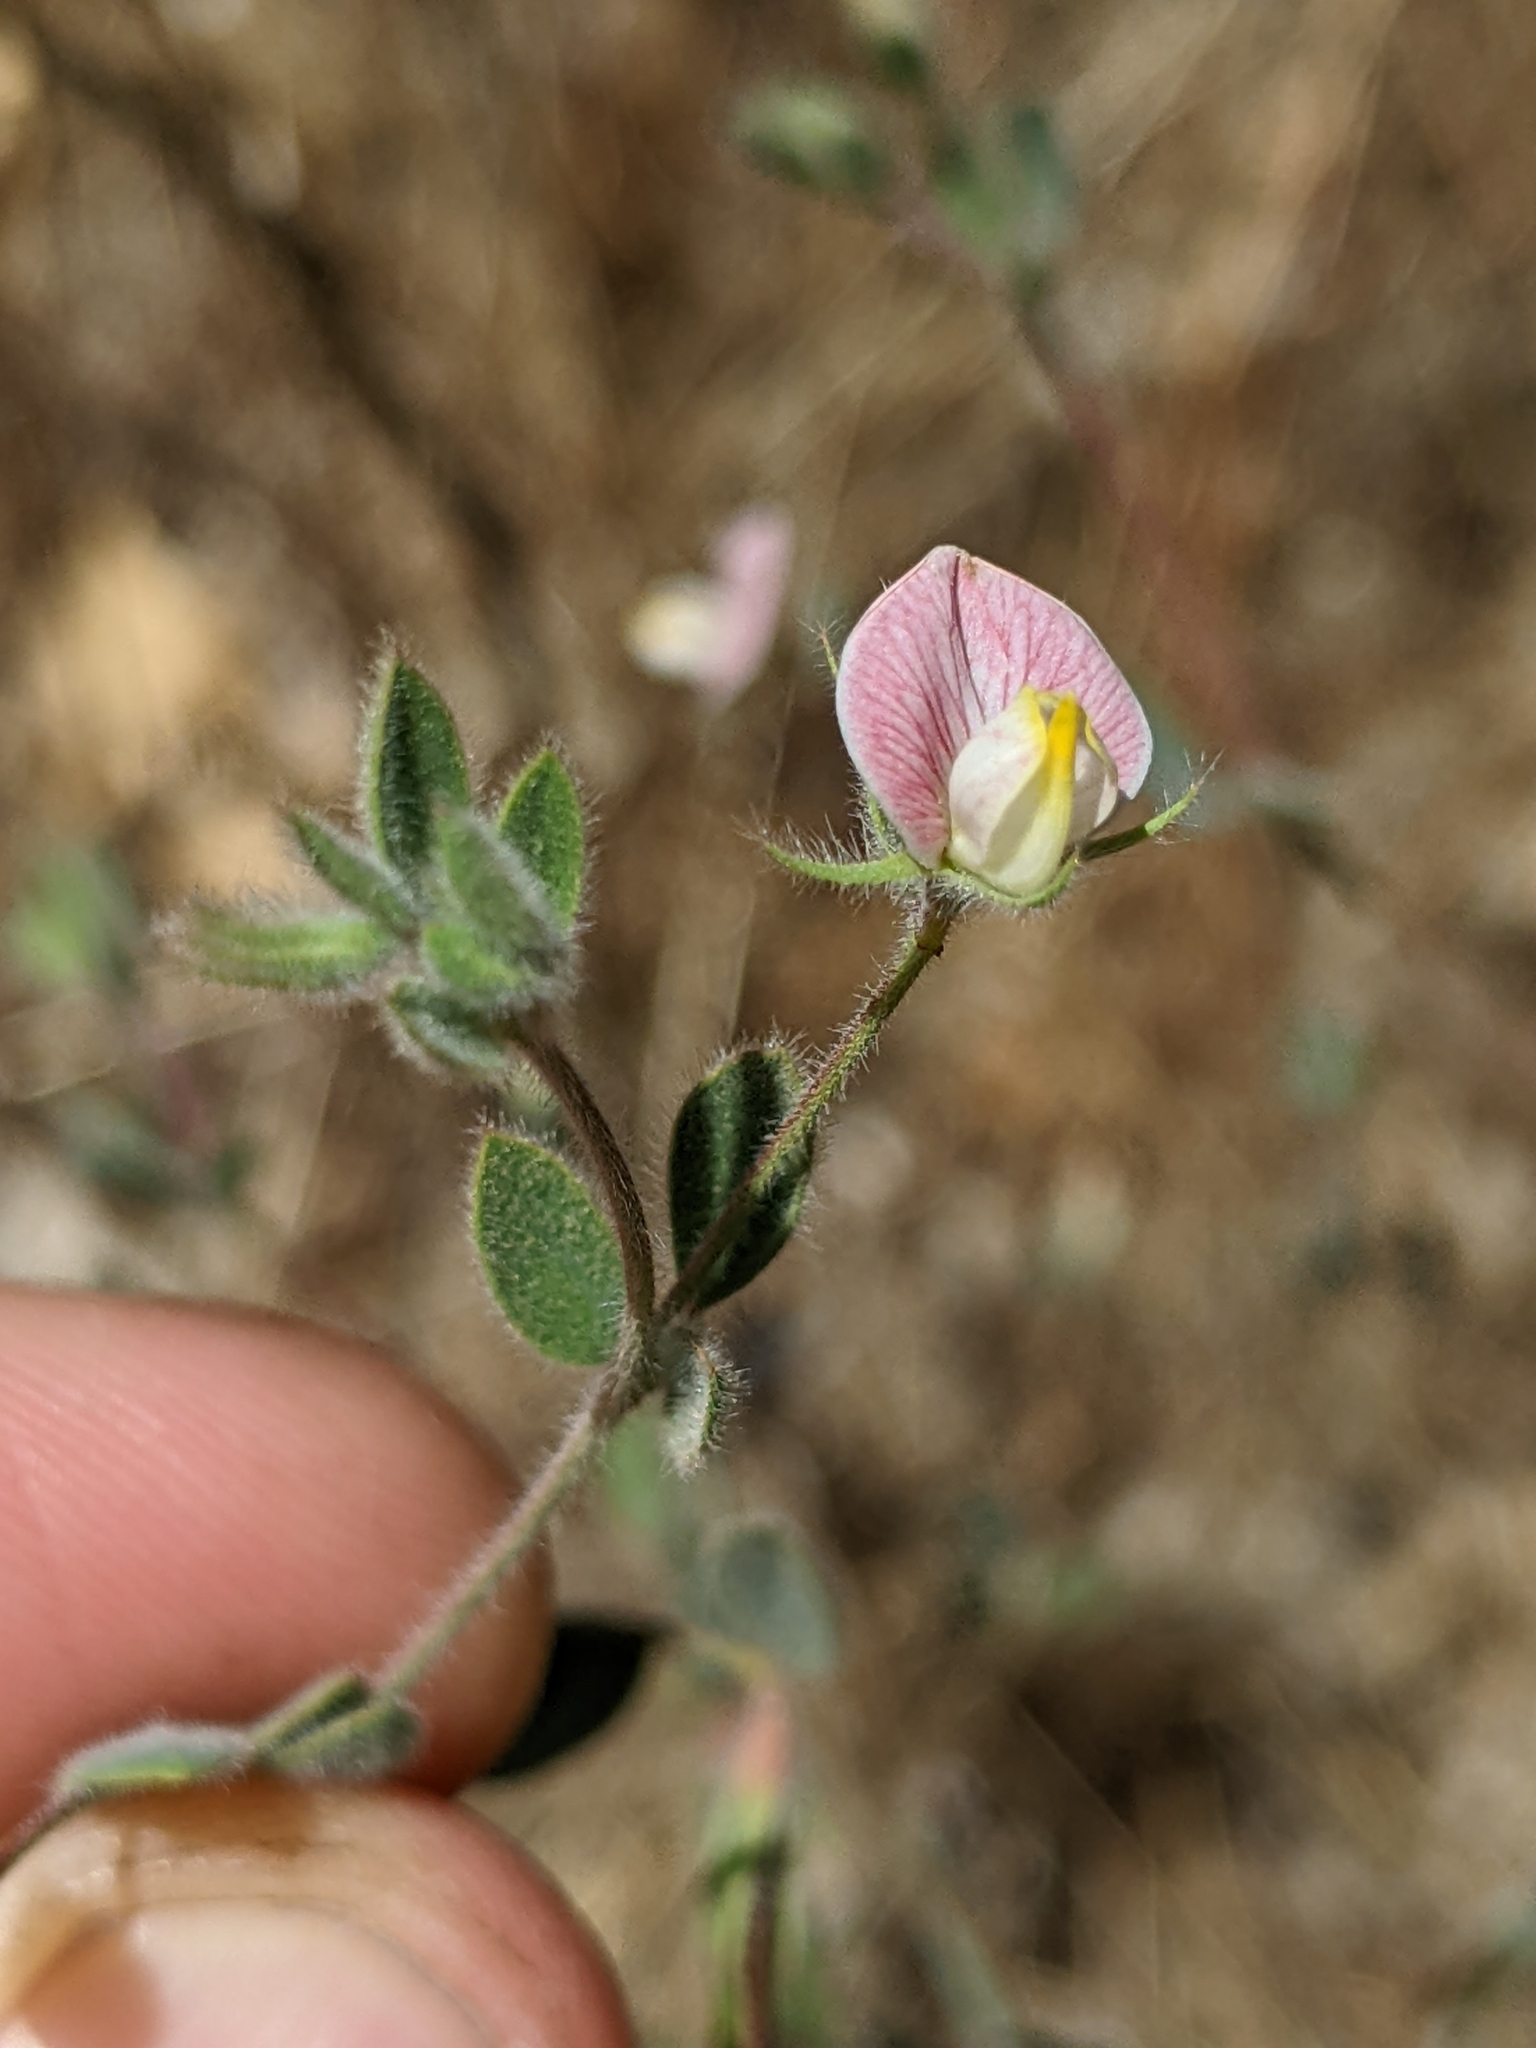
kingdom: Plantae
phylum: Tracheophyta
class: Magnoliopsida
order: Fabales
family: Fabaceae
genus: Acmispon
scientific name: Acmispon americanus
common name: American bird's-foot trefoil
